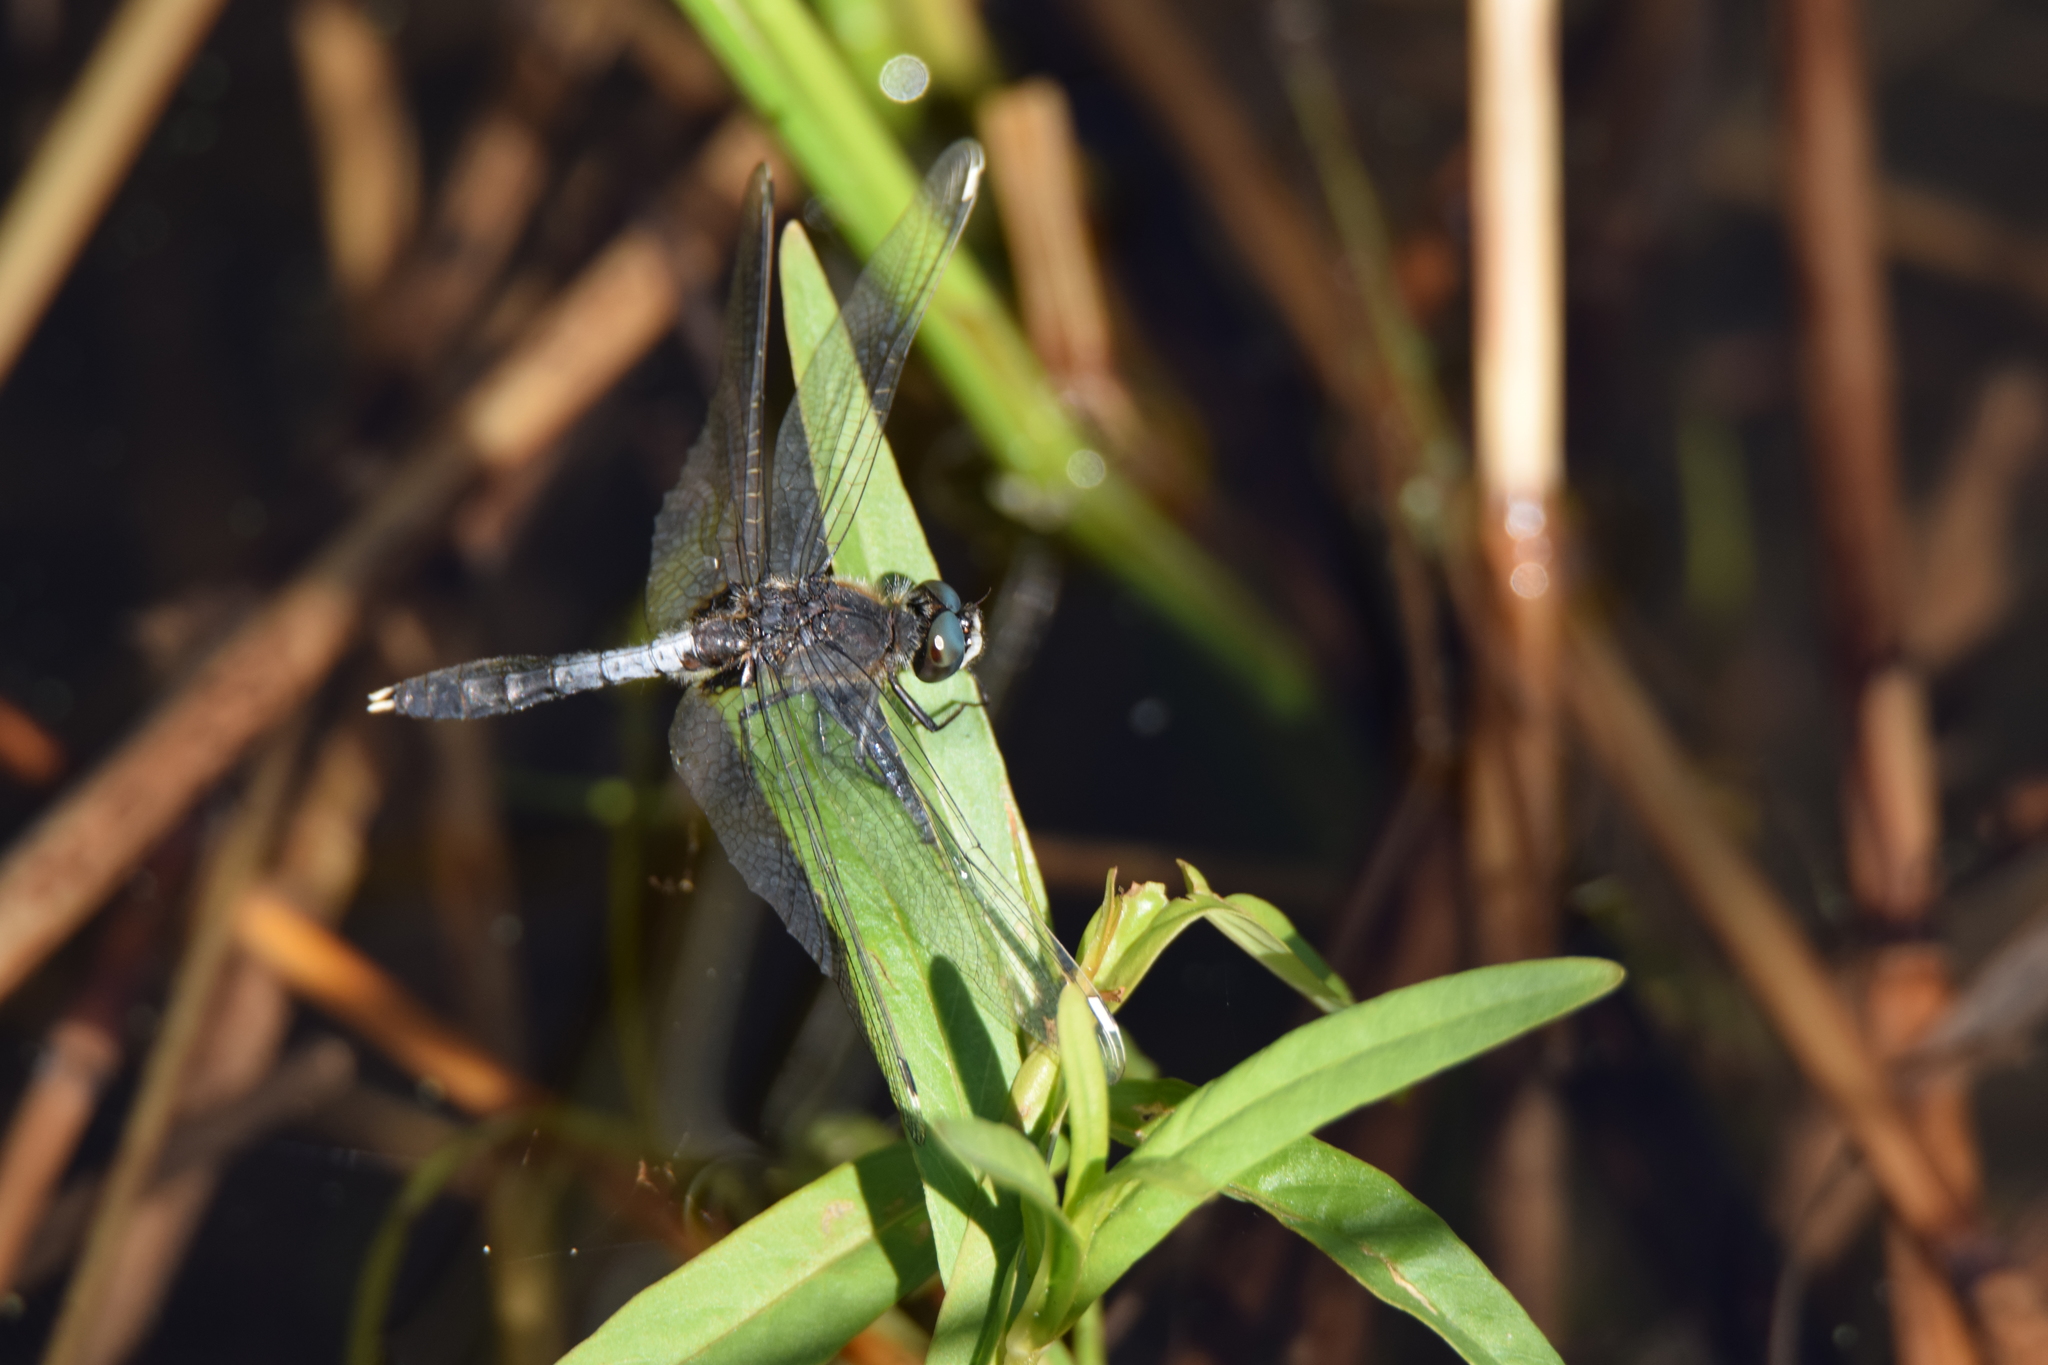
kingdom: Animalia
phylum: Arthropoda
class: Insecta
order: Odonata
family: Libellulidae
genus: Leucorrhinia
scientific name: Leucorrhinia caudalis
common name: Lilypad whiteface
